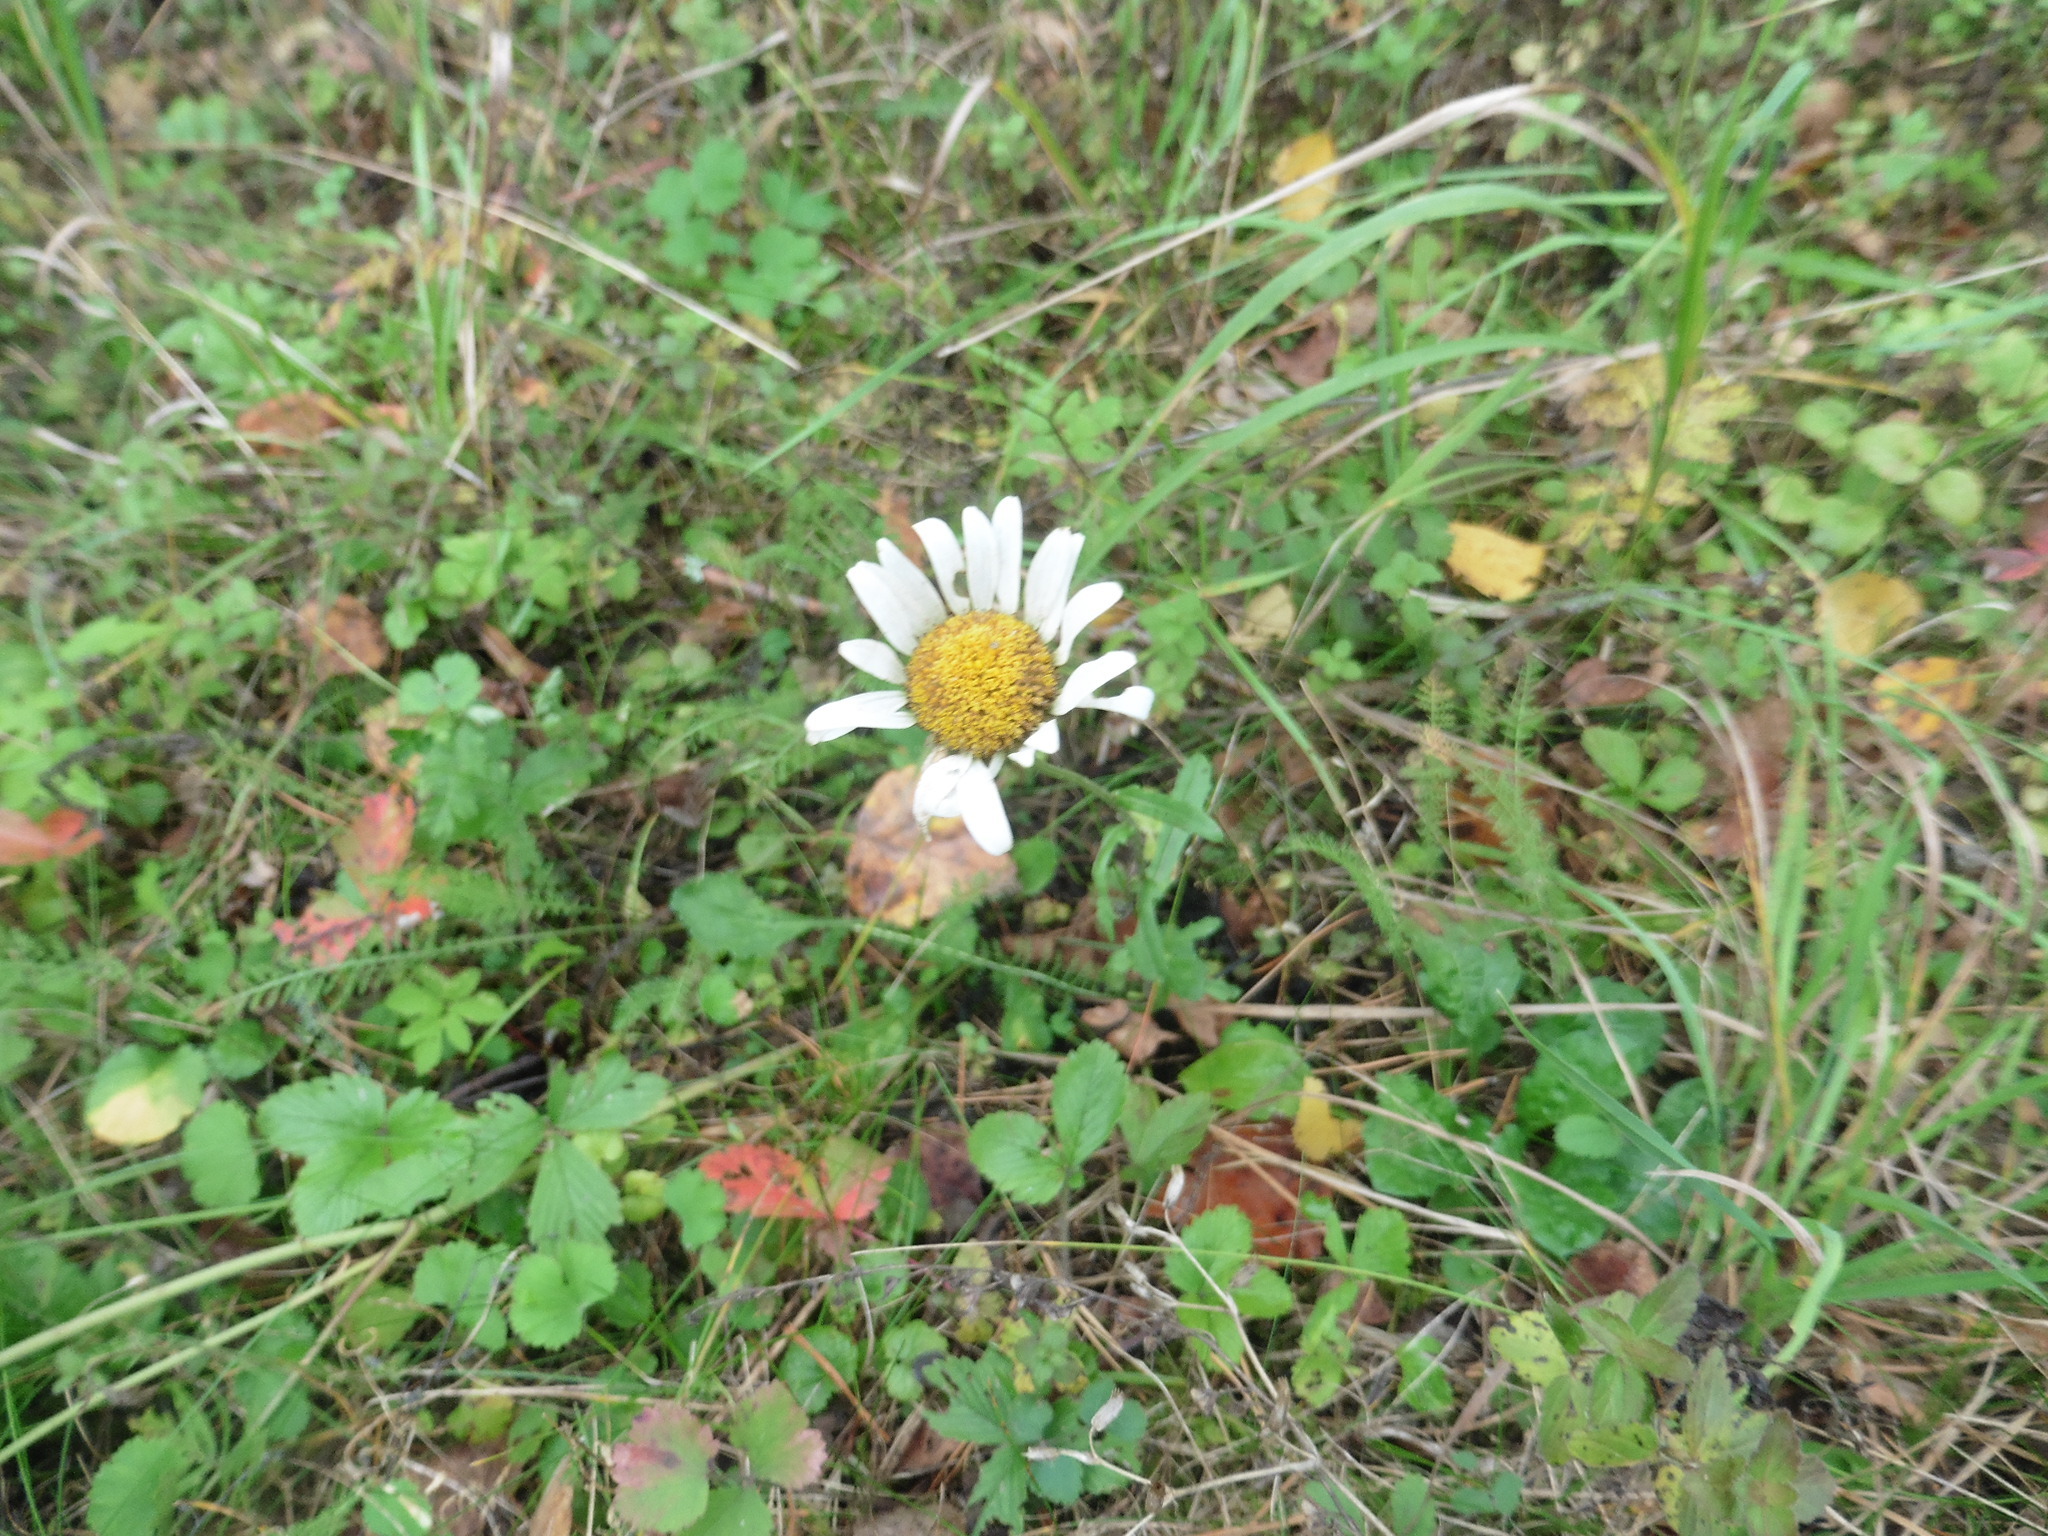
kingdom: Plantae
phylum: Tracheophyta
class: Magnoliopsida
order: Asterales
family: Asteraceae
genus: Leucanthemum
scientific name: Leucanthemum vulgare
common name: Oxeye daisy
